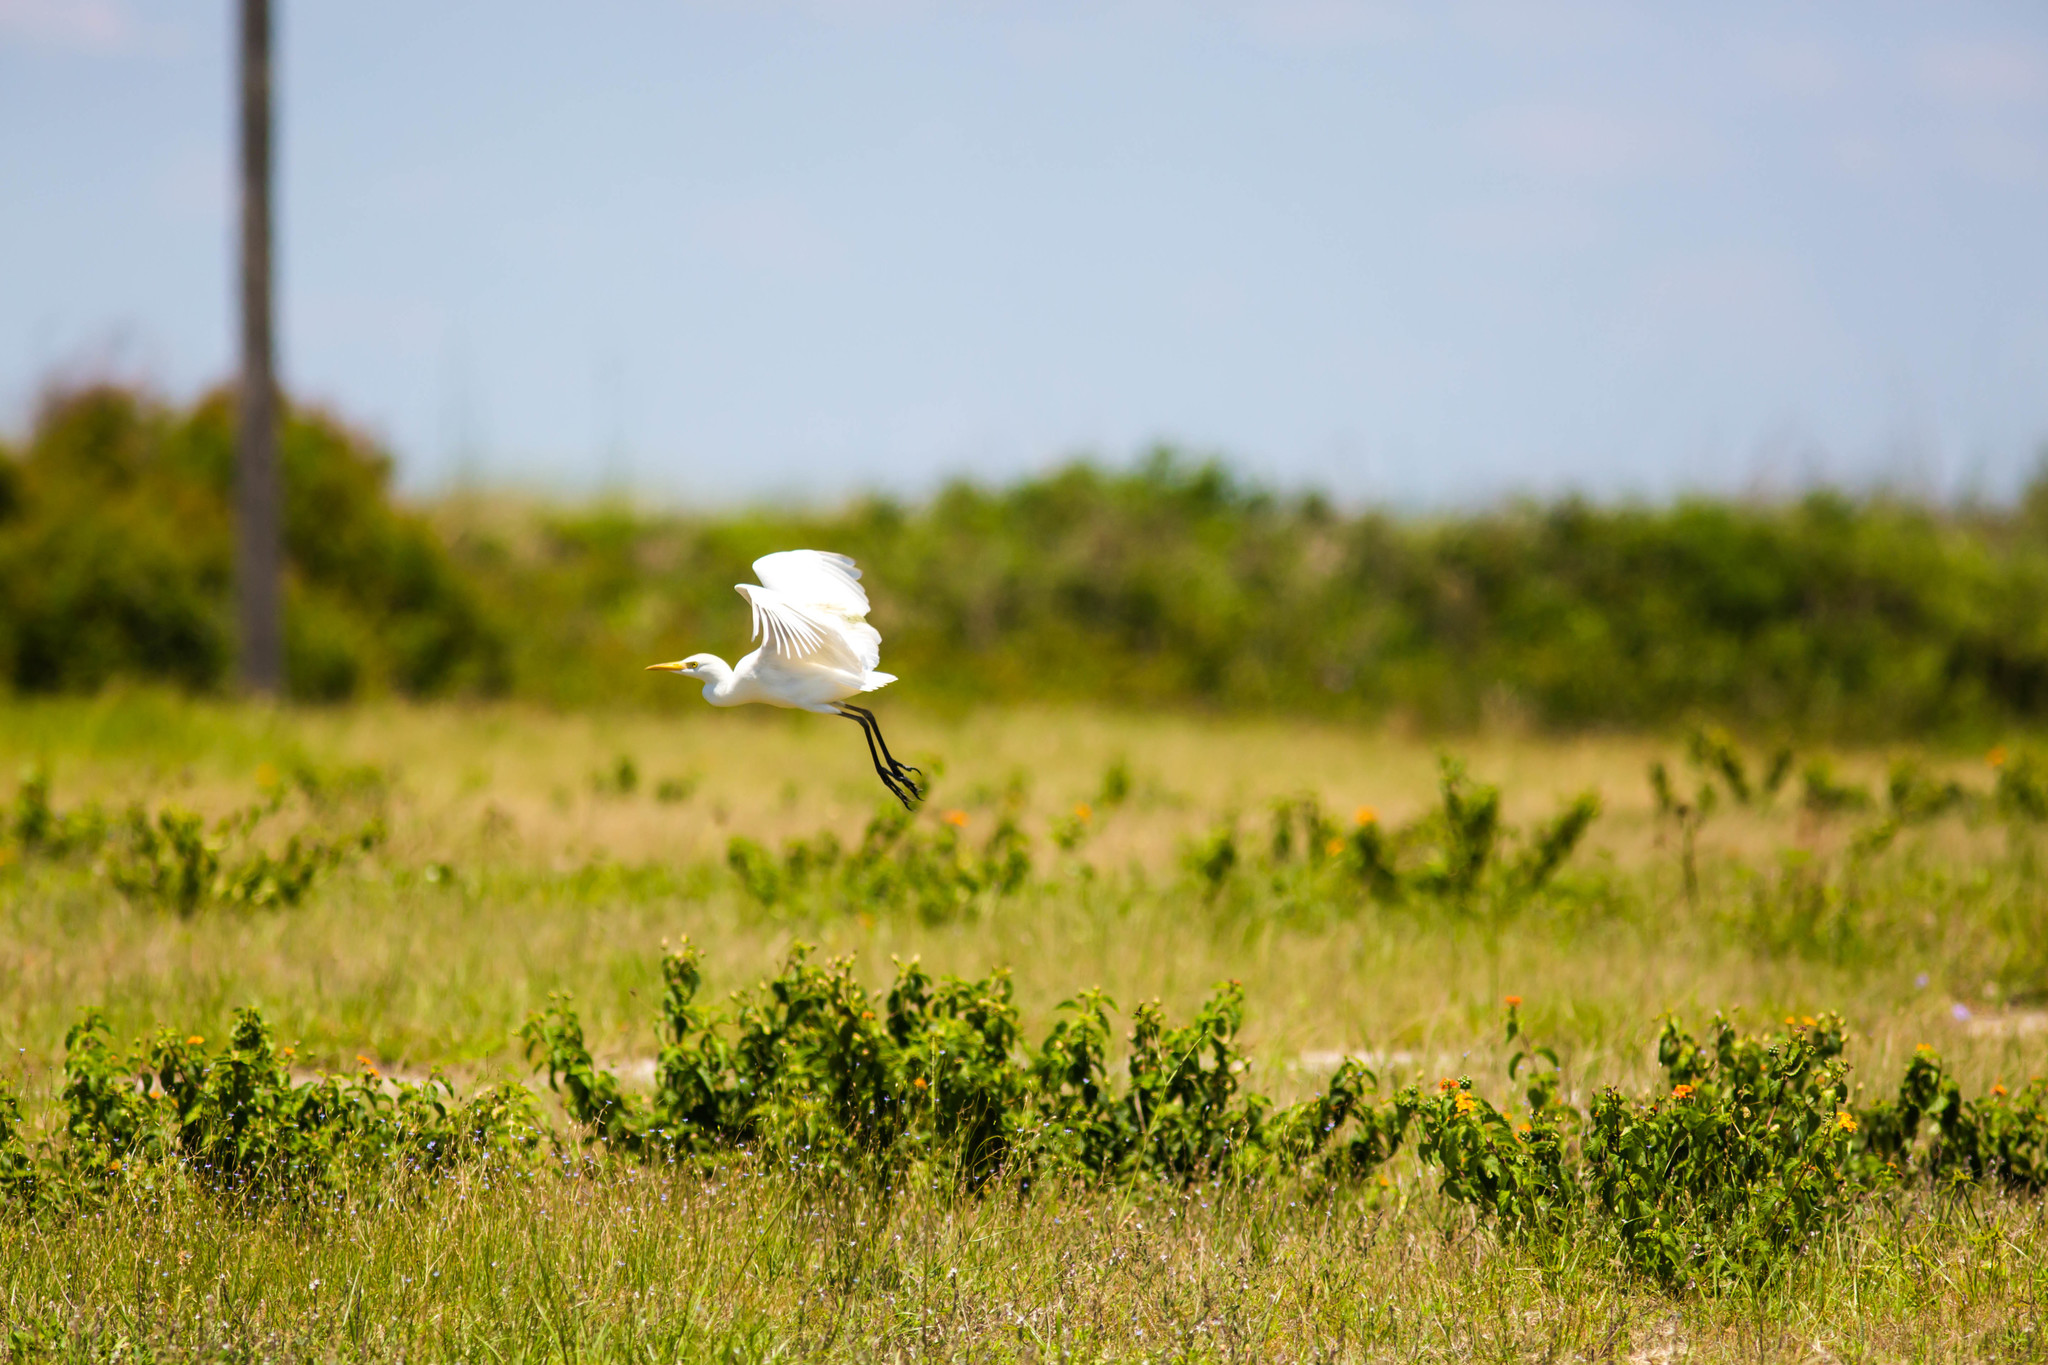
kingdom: Animalia
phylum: Chordata
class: Aves
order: Pelecaniformes
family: Ardeidae
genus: Bubulcus
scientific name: Bubulcus ibis
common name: Cattle egret
